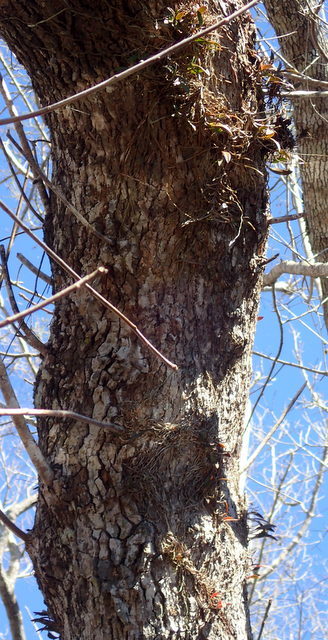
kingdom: Plantae
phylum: Tracheophyta
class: Liliopsida
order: Asparagales
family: Orchidaceae
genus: Epidendrum
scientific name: Epidendrum conopseum
